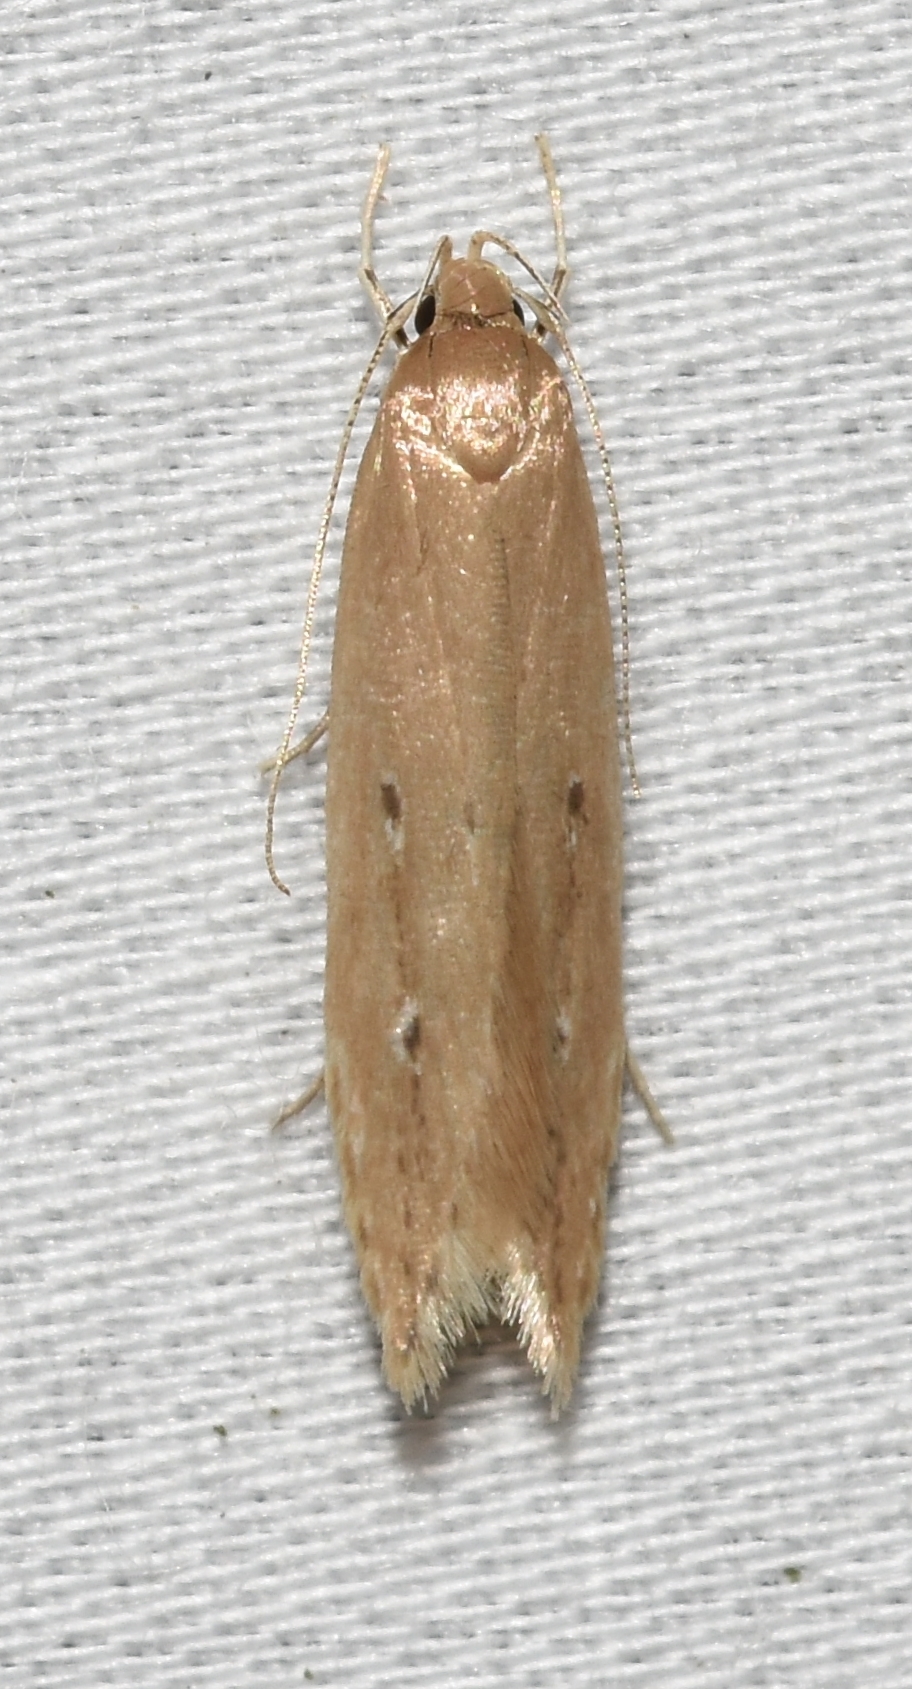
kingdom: Animalia
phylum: Arthropoda
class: Insecta
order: Lepidoptera
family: Cosmopterigidae
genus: Limnaecia
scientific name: Limnaecia phragmitella
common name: Bulrush cosmet
